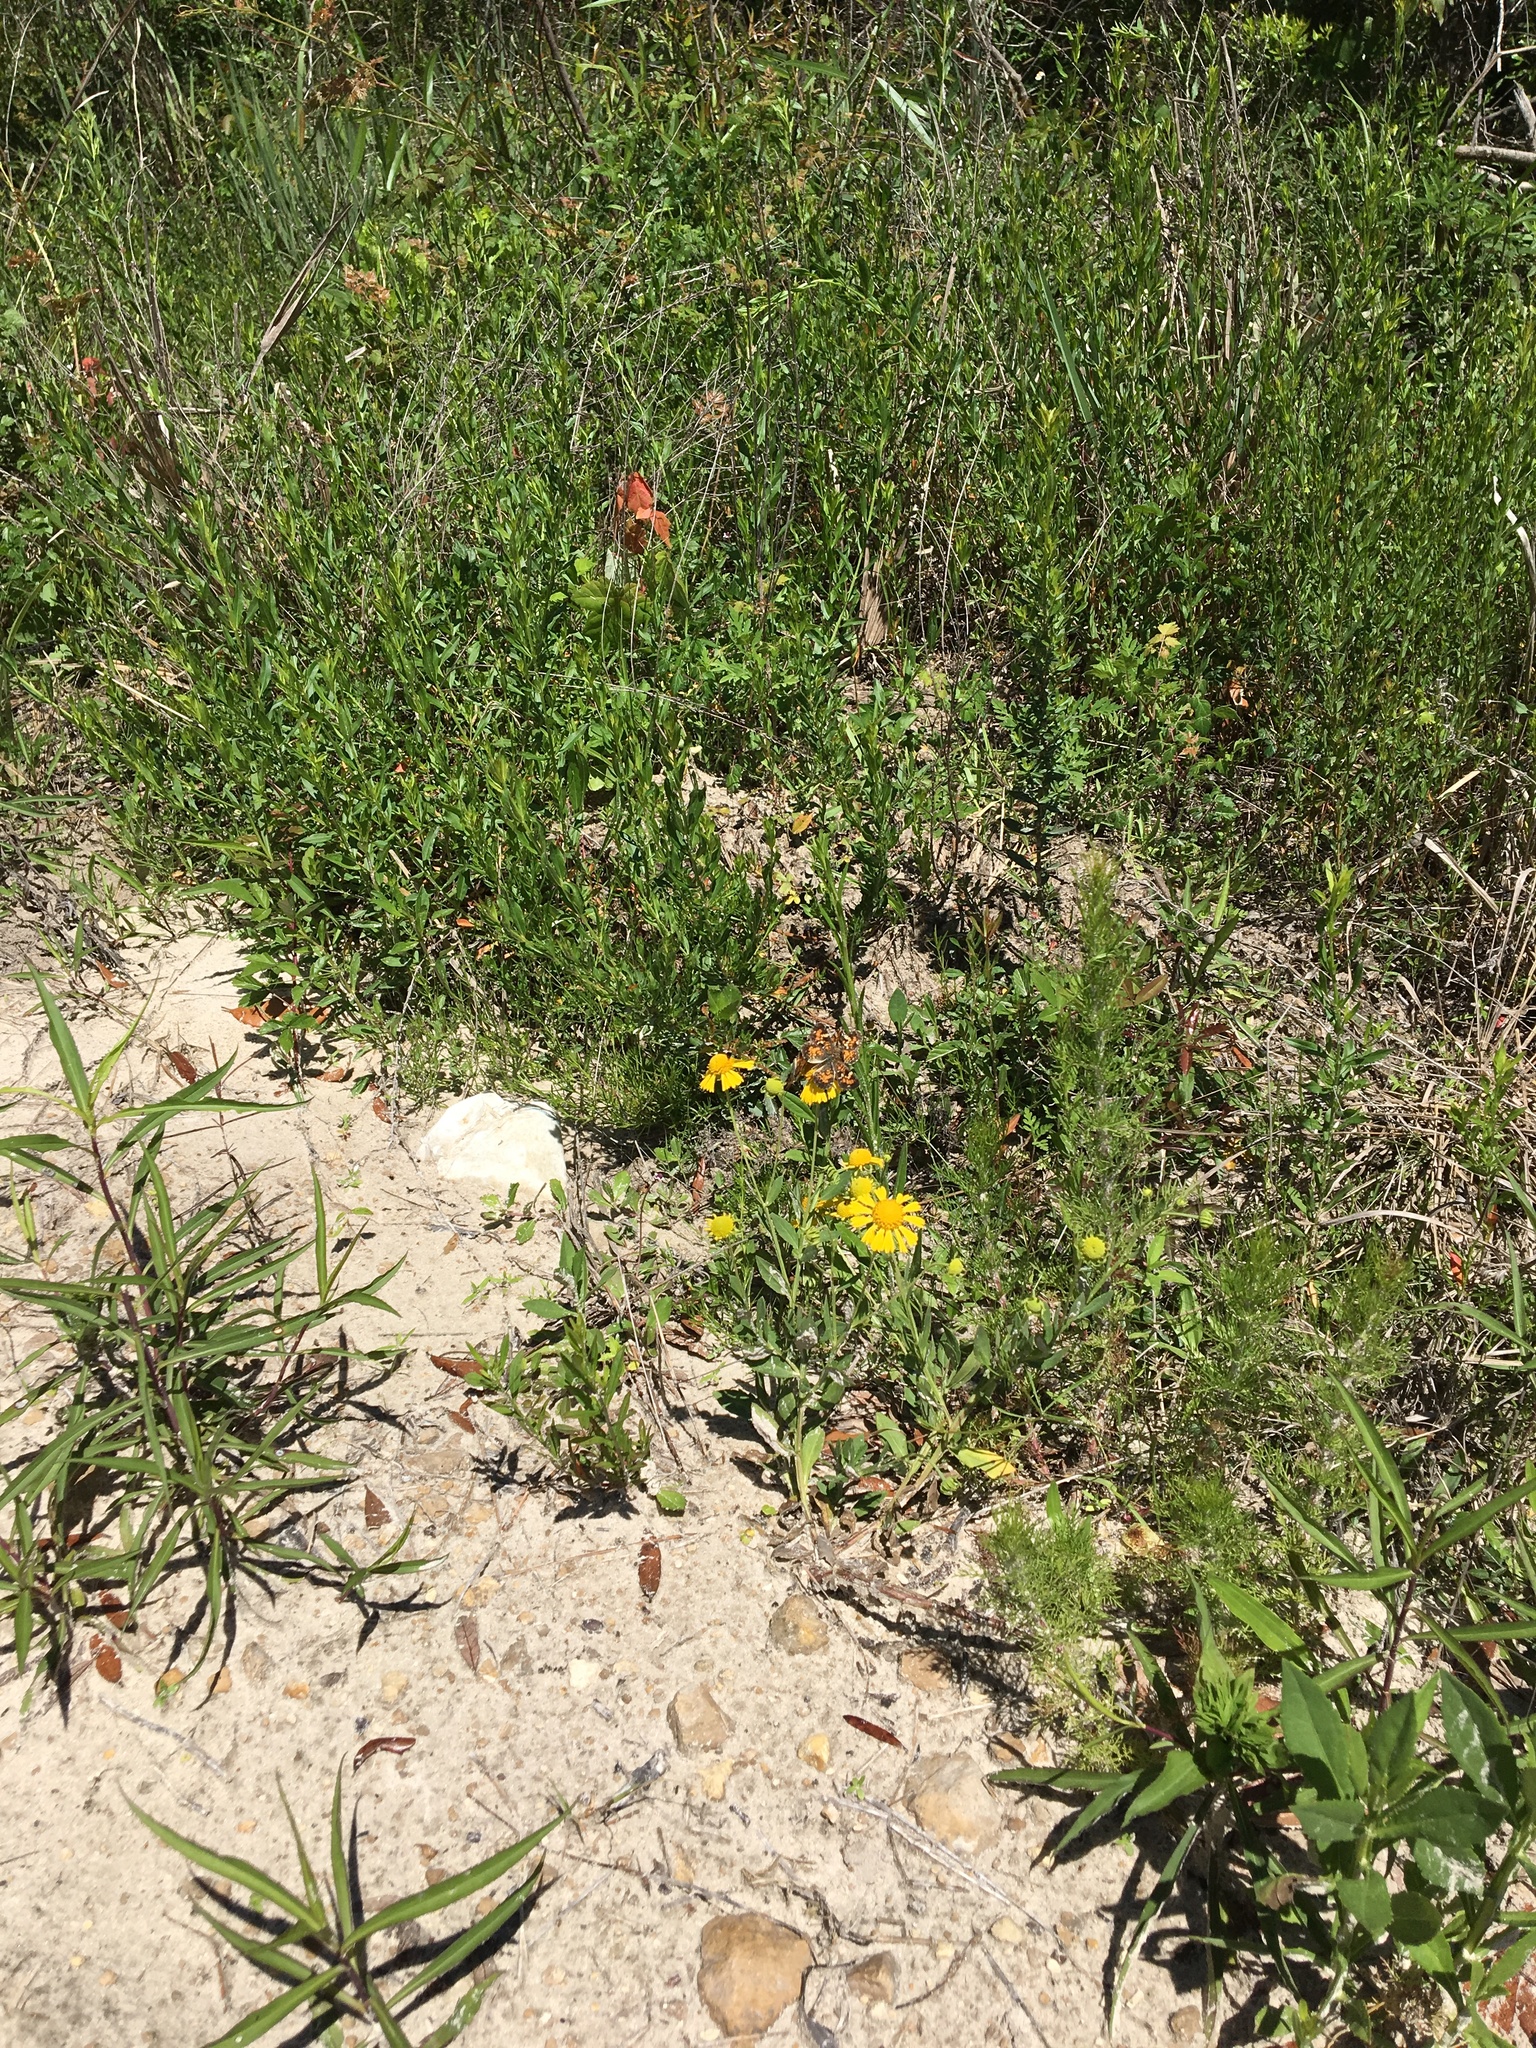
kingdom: Animalia
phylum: Arthropoda
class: Insecta
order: Lepidoptera
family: Nymphalidae
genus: Phyciodes
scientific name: Phyciodes phaon
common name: Phaon crescent
